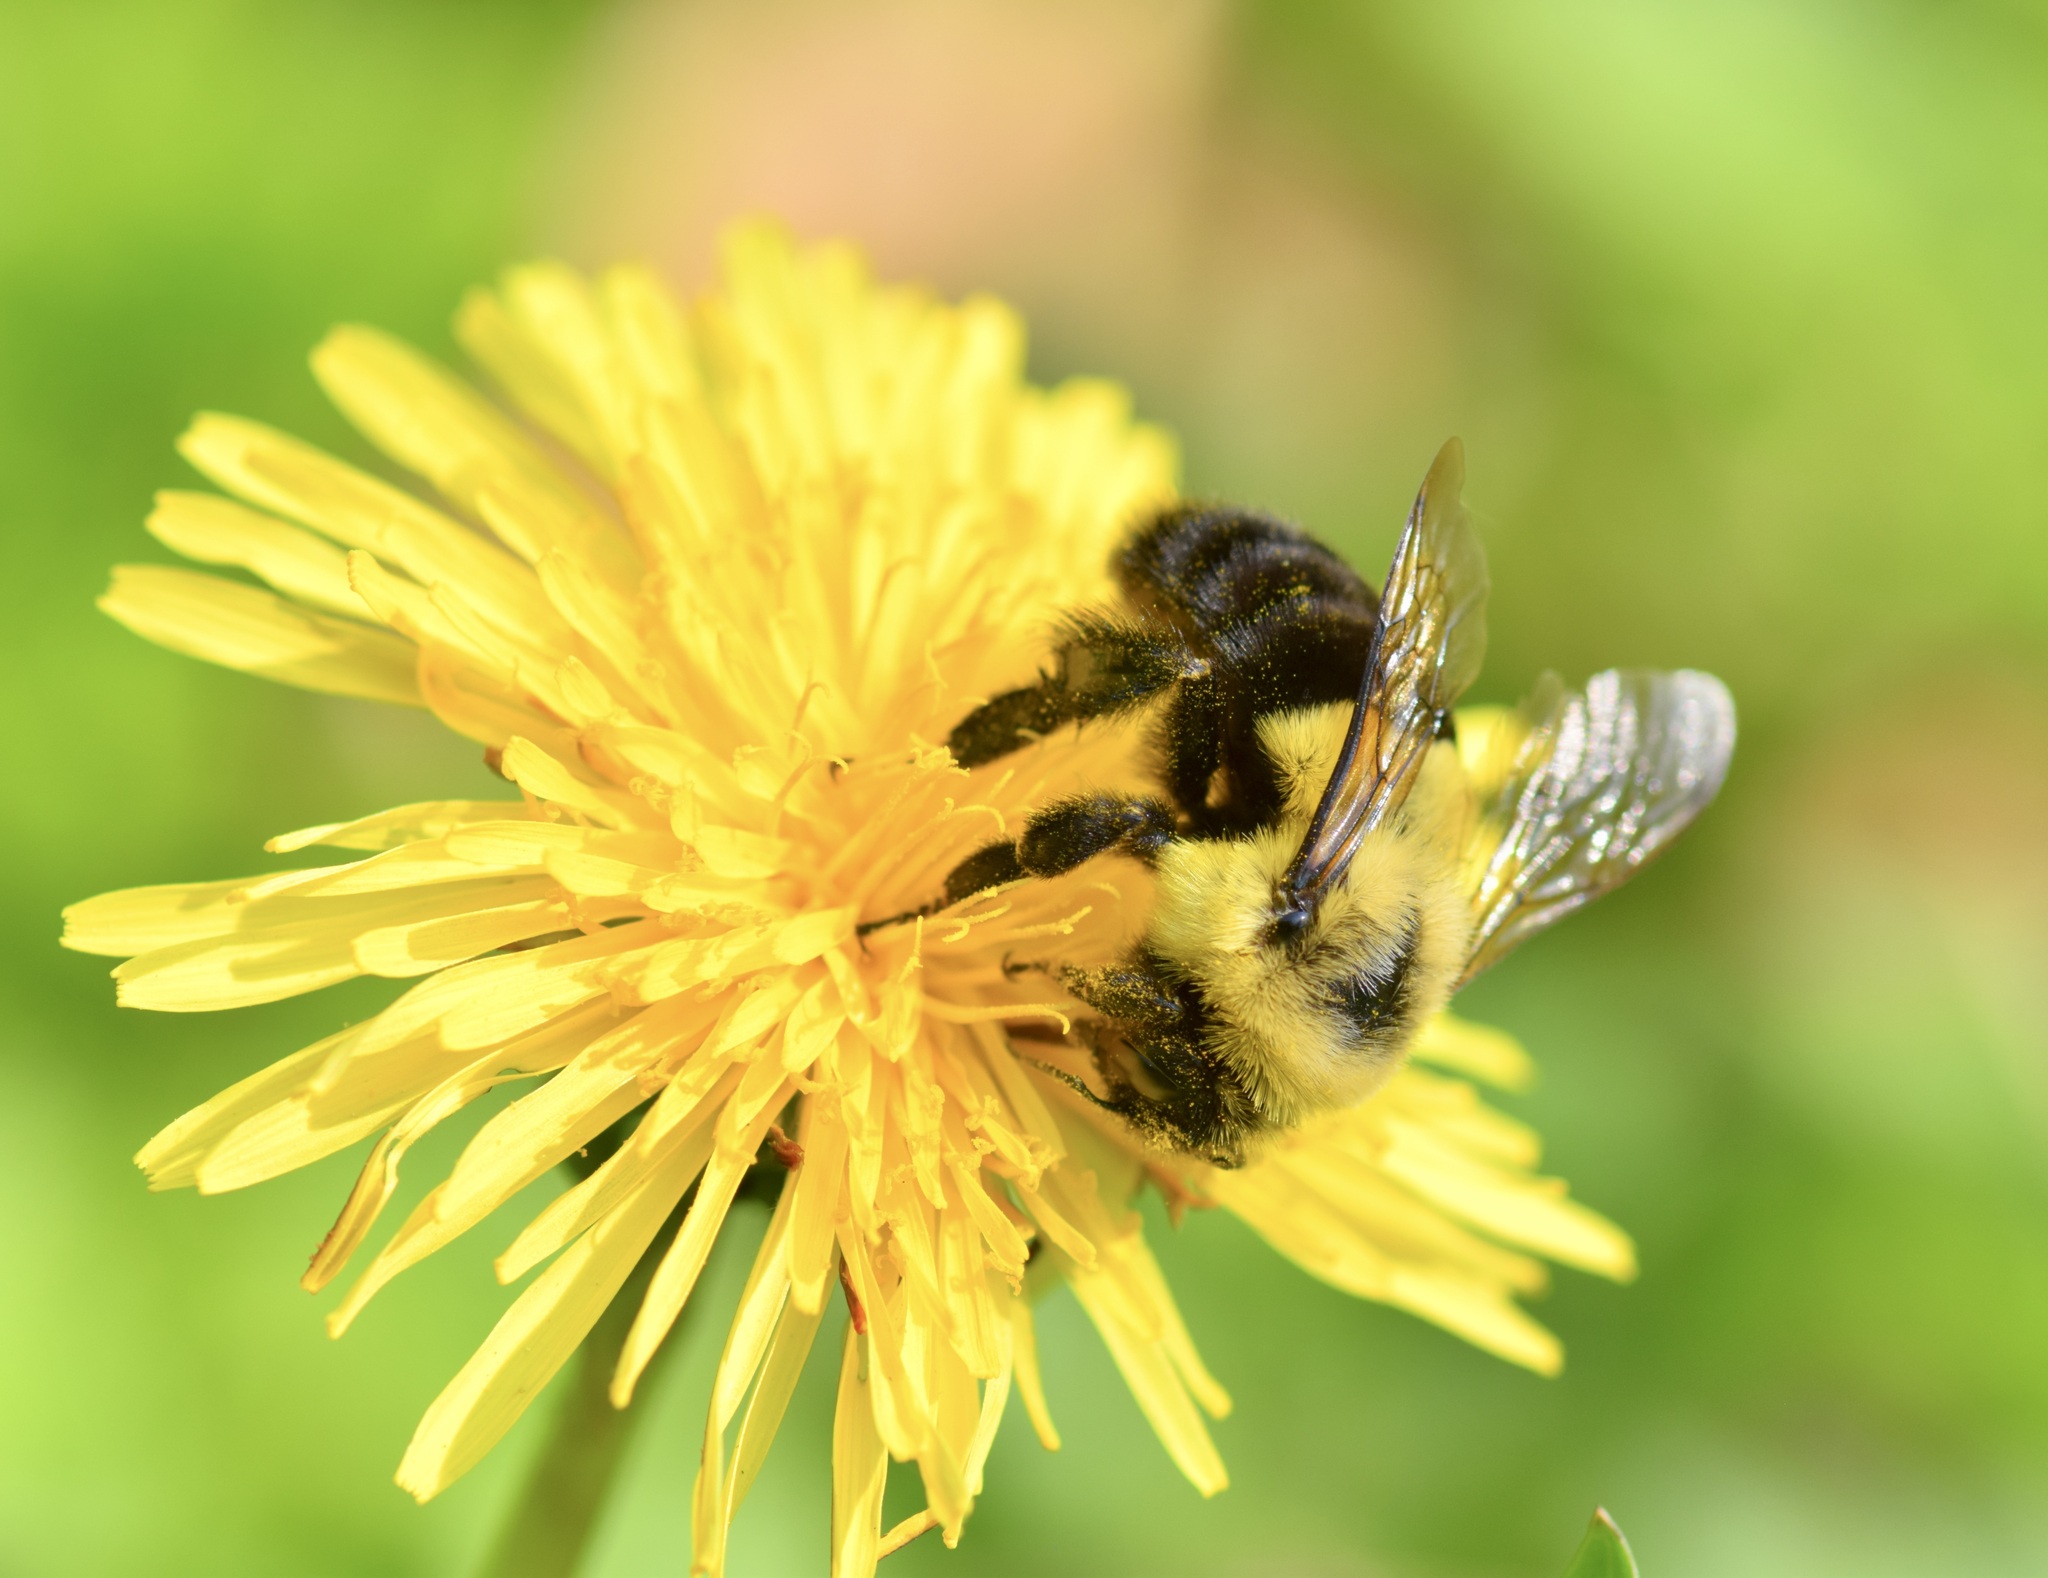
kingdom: Animalia
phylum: Arthropoda
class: Insecta
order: Hymenoptera
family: Apidae
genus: Bombus
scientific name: Bombus impatiens
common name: Common eastern bumble bee
